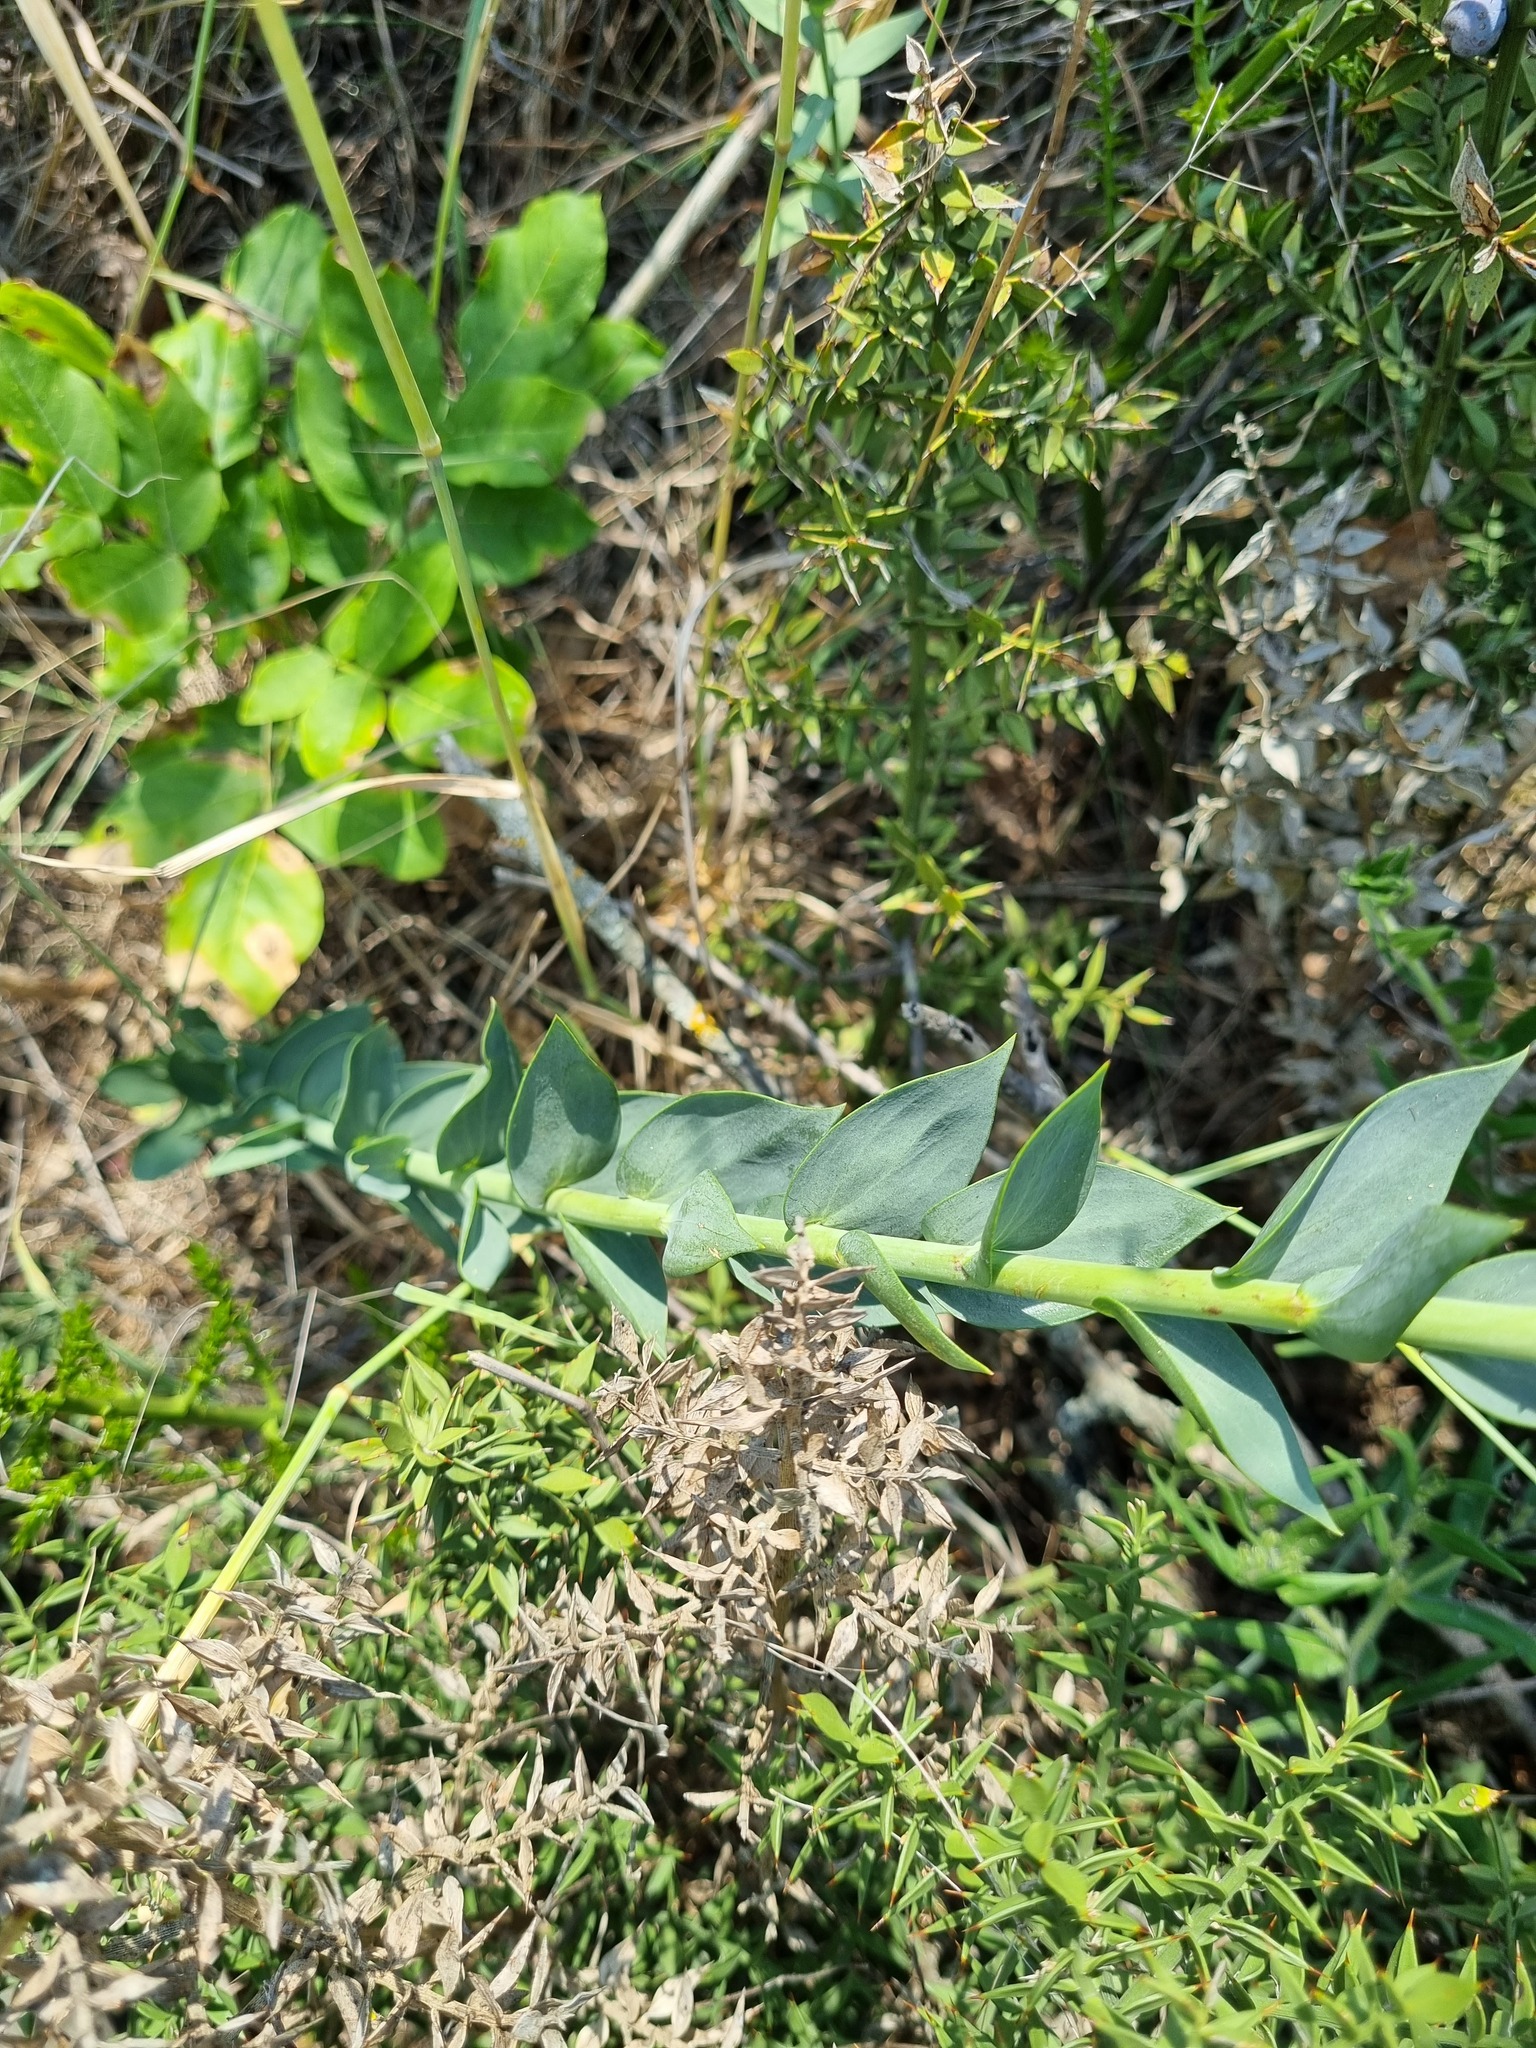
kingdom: Plantae
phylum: Tracheophyta
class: Magnoliopsida
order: Lamiales
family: Plantaginaceae
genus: Linaria
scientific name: Linaria genistifolia
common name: Broomleaf toadflax
